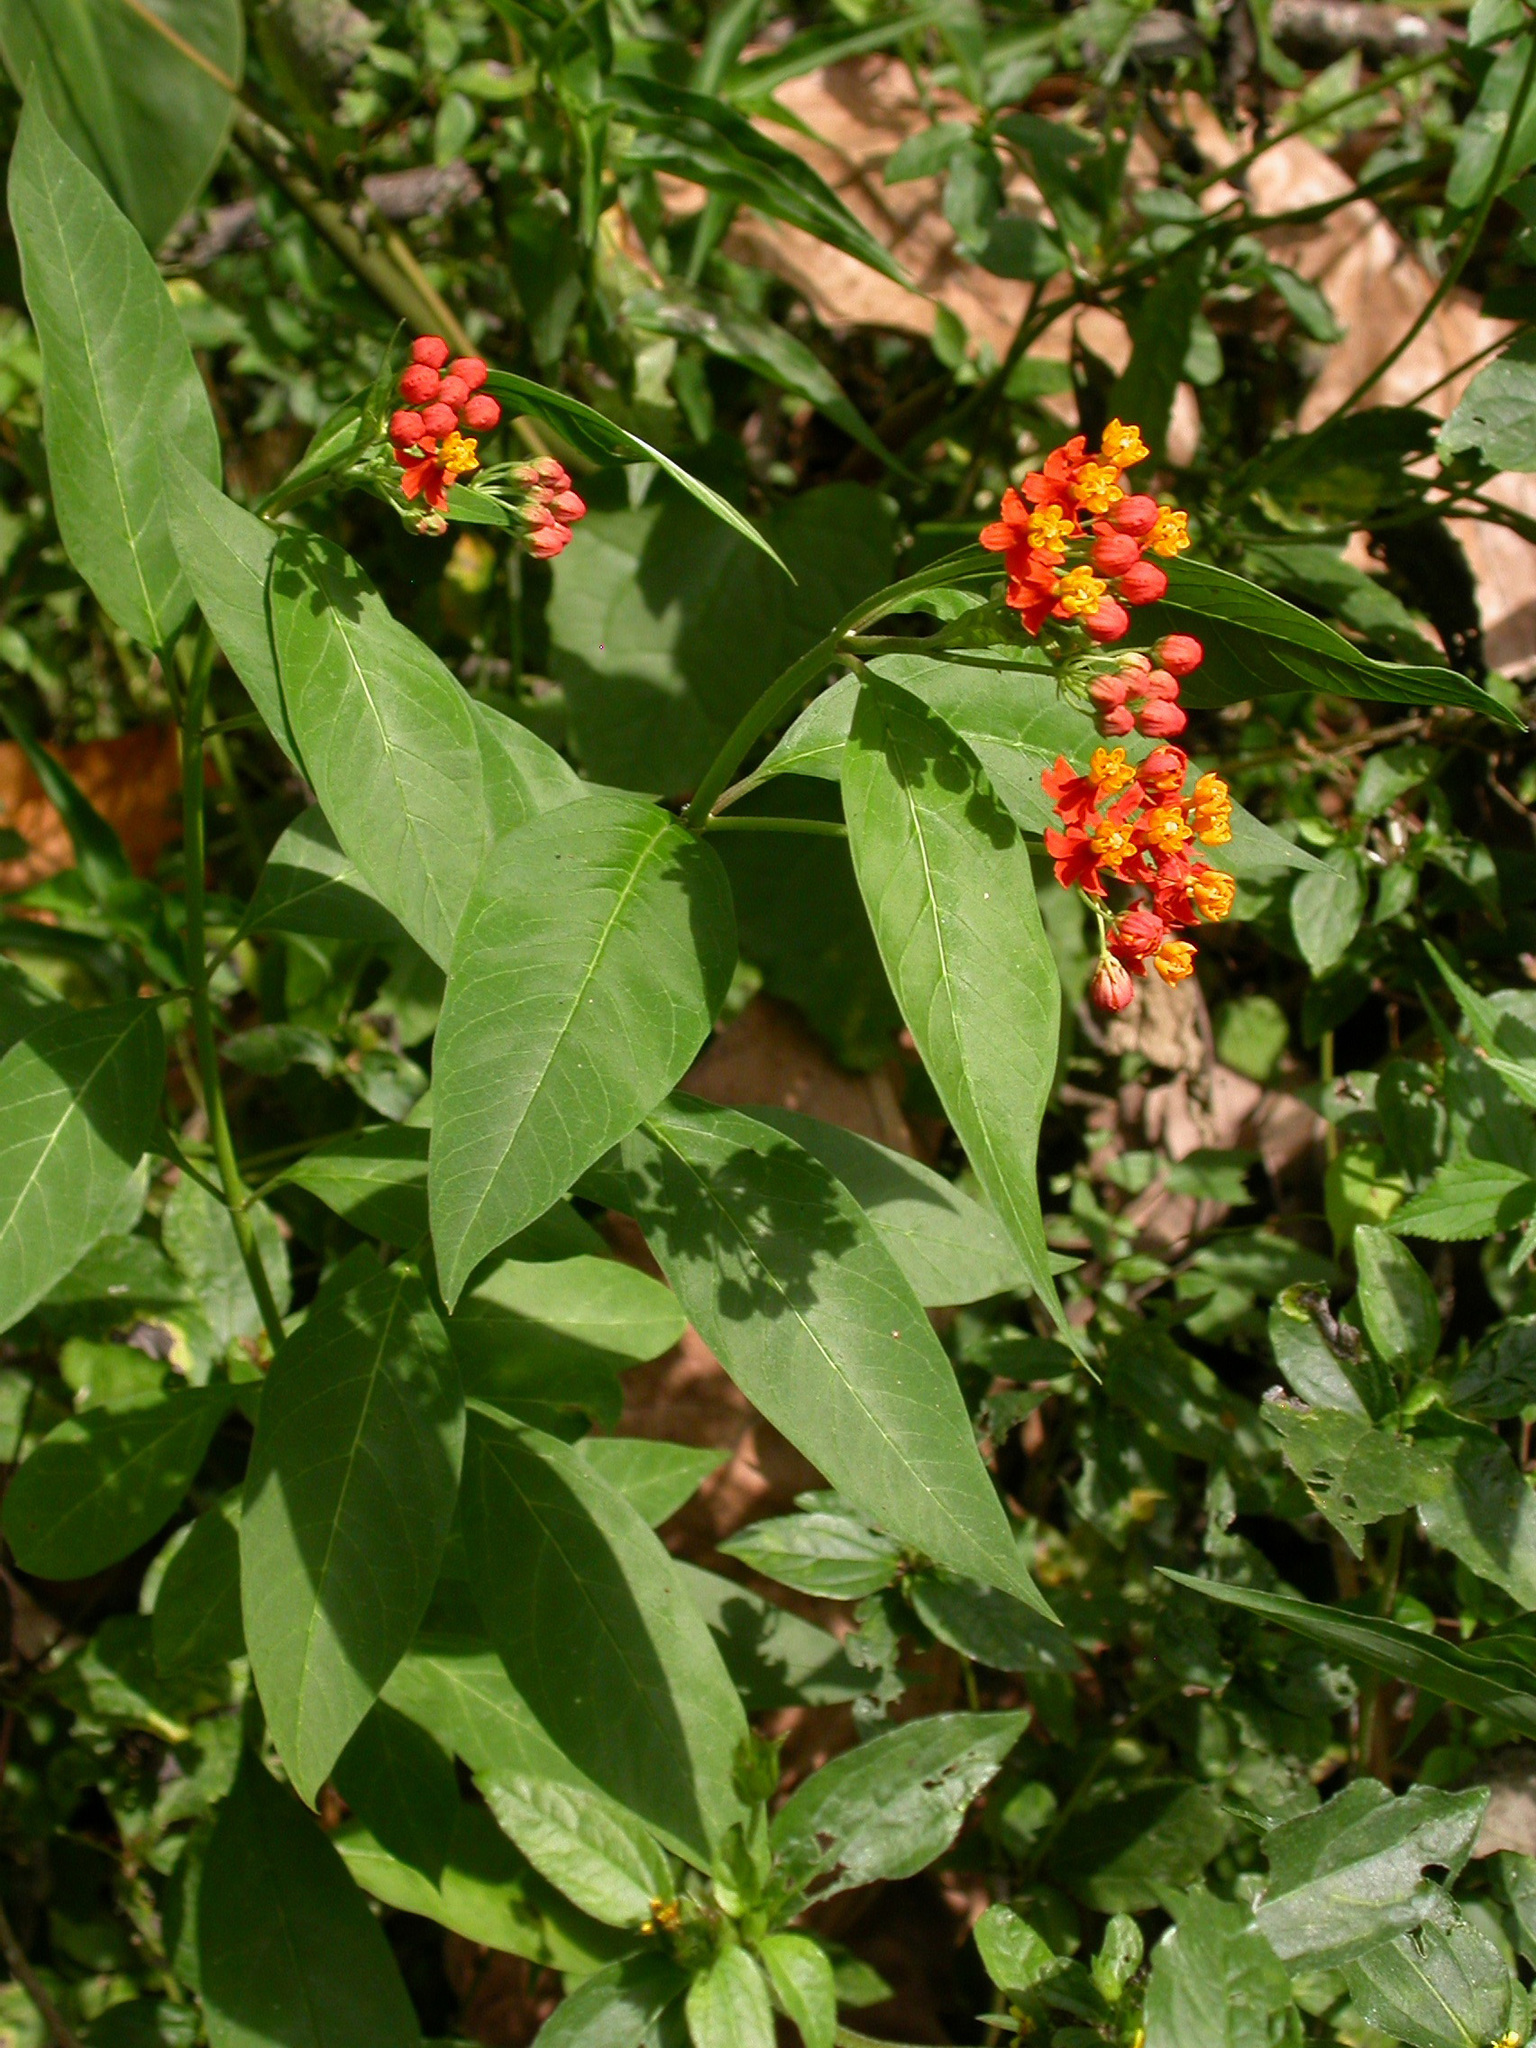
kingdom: Plantae
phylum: Tracheophyta
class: Magnoliopsida
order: Gentianales
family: Apocynaceae
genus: Asclepias
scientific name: Asclepias curassavica
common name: Bloodflower
